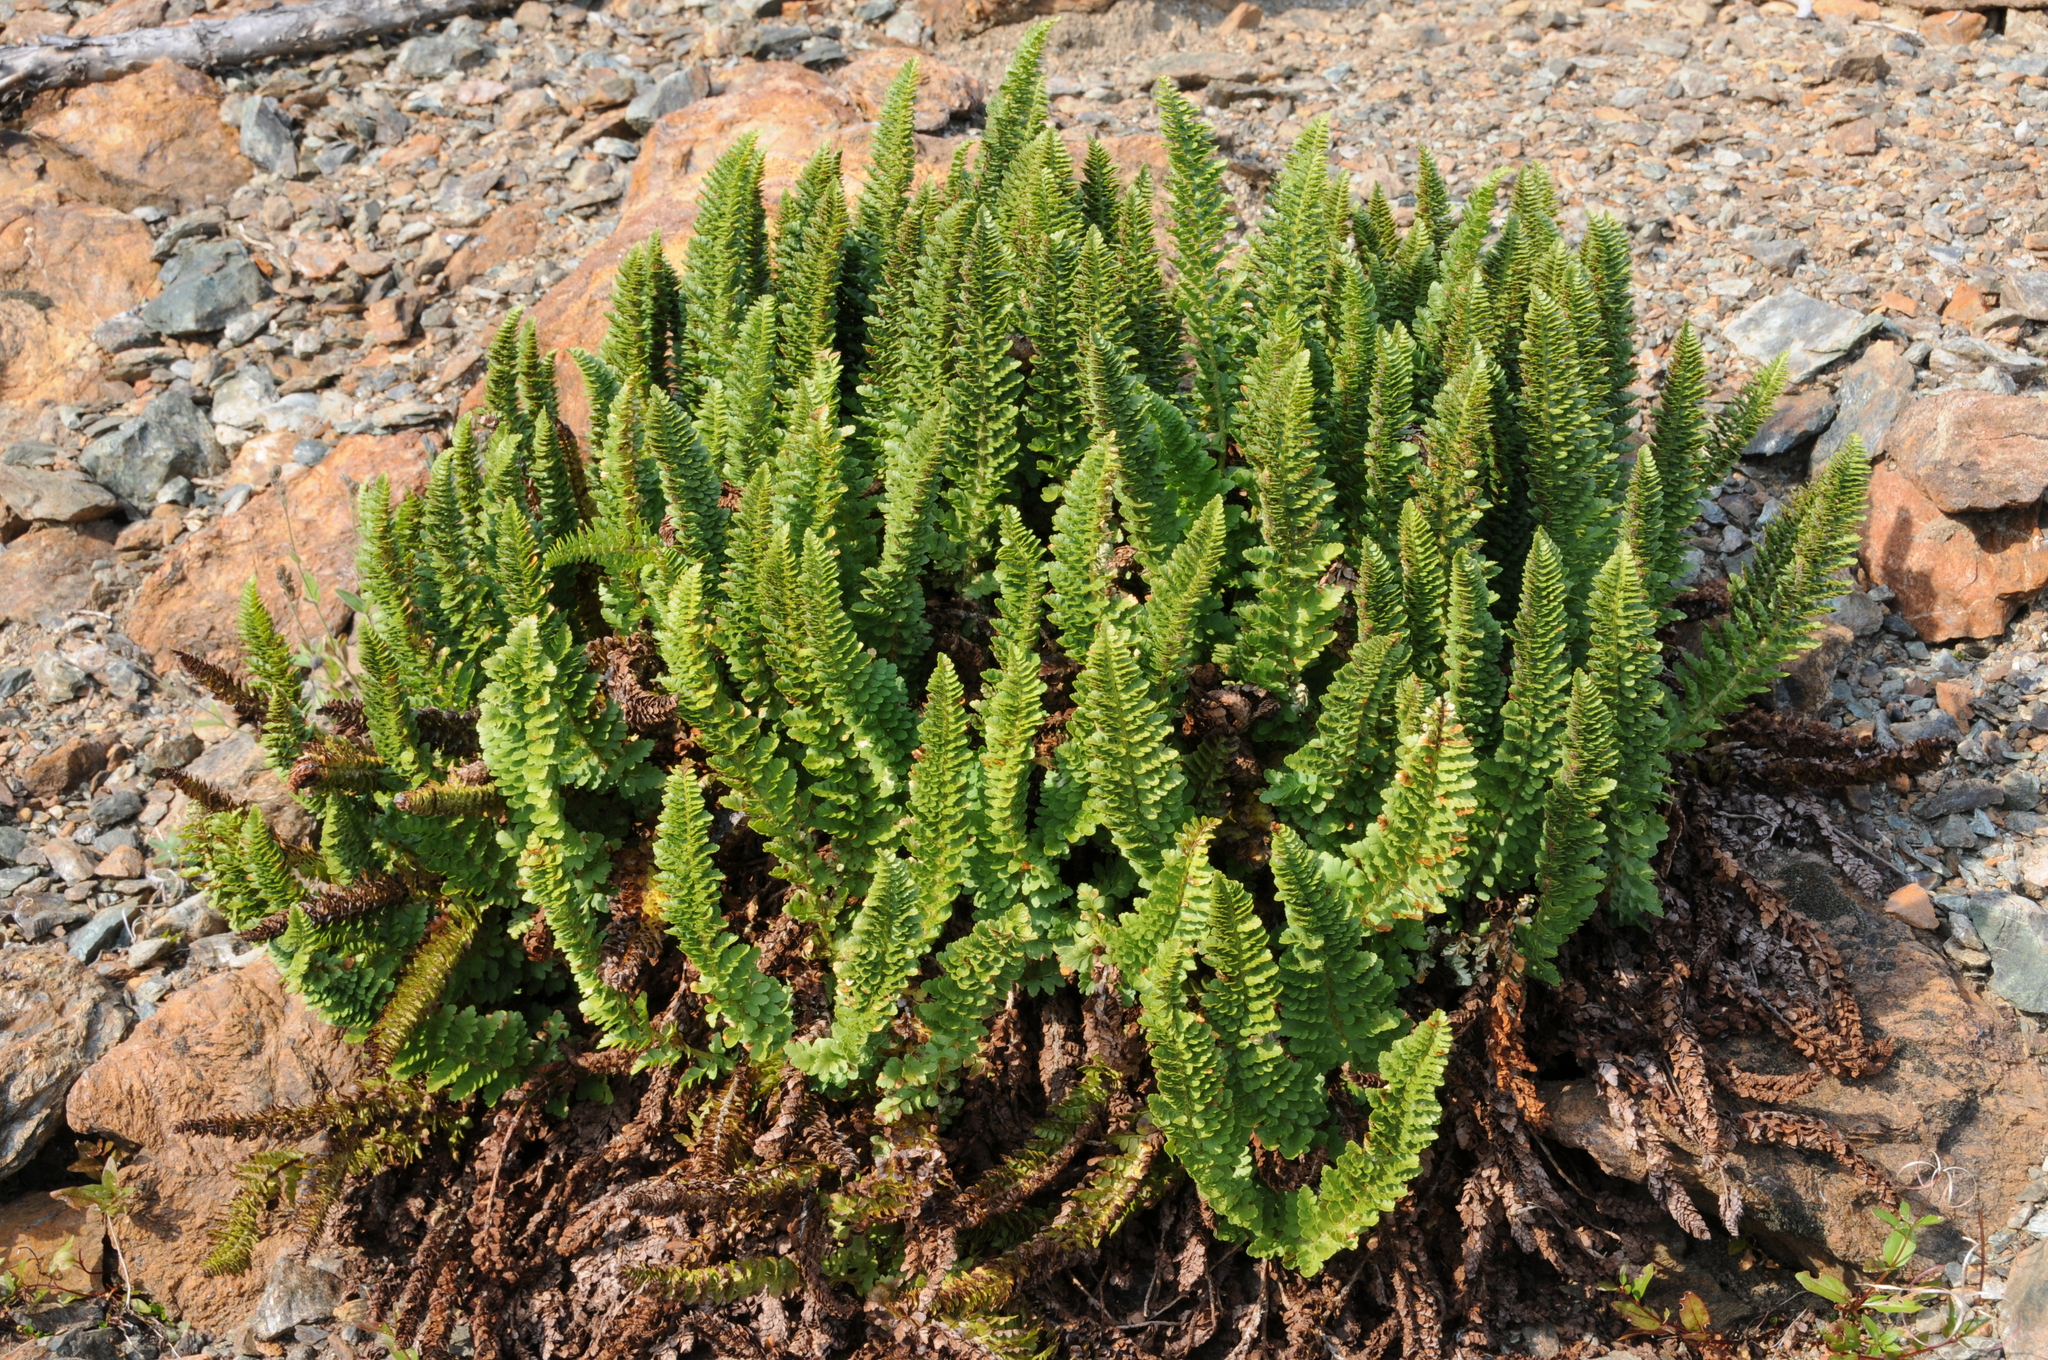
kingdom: Plantae
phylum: Tracheophyta
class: Polypodiopsida
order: Polypodiales
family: Dryopteridaceae
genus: Polystichum
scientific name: Polystichum lemmonii
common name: Lemmon's holly fern
